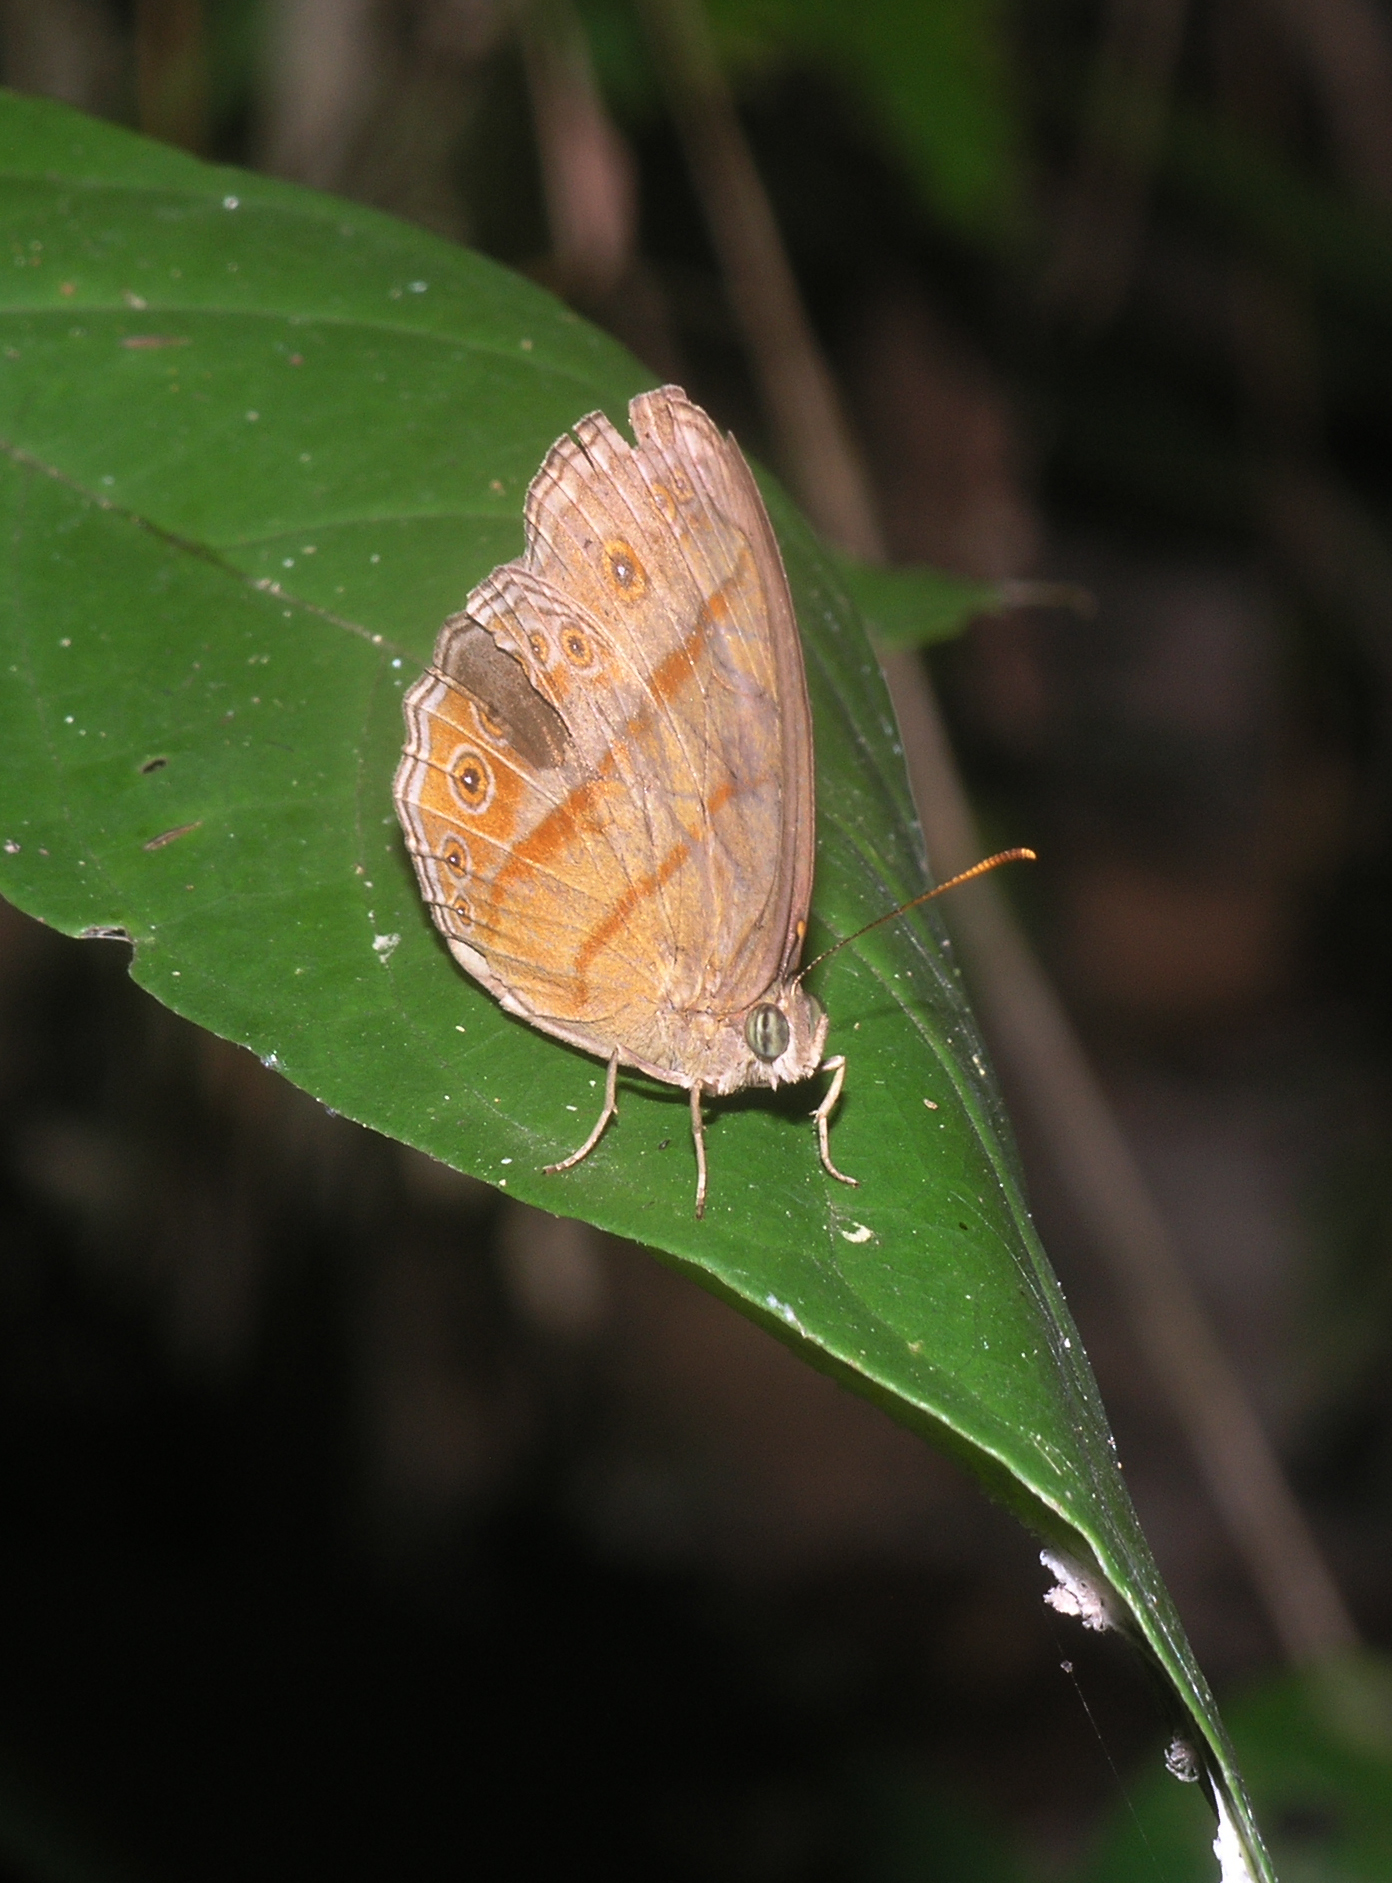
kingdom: Animalia
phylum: Arthropoda
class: Insecta
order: Lepidoptera
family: Nymphalidae
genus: Mycalesis
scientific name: Mycalesis fuscum
